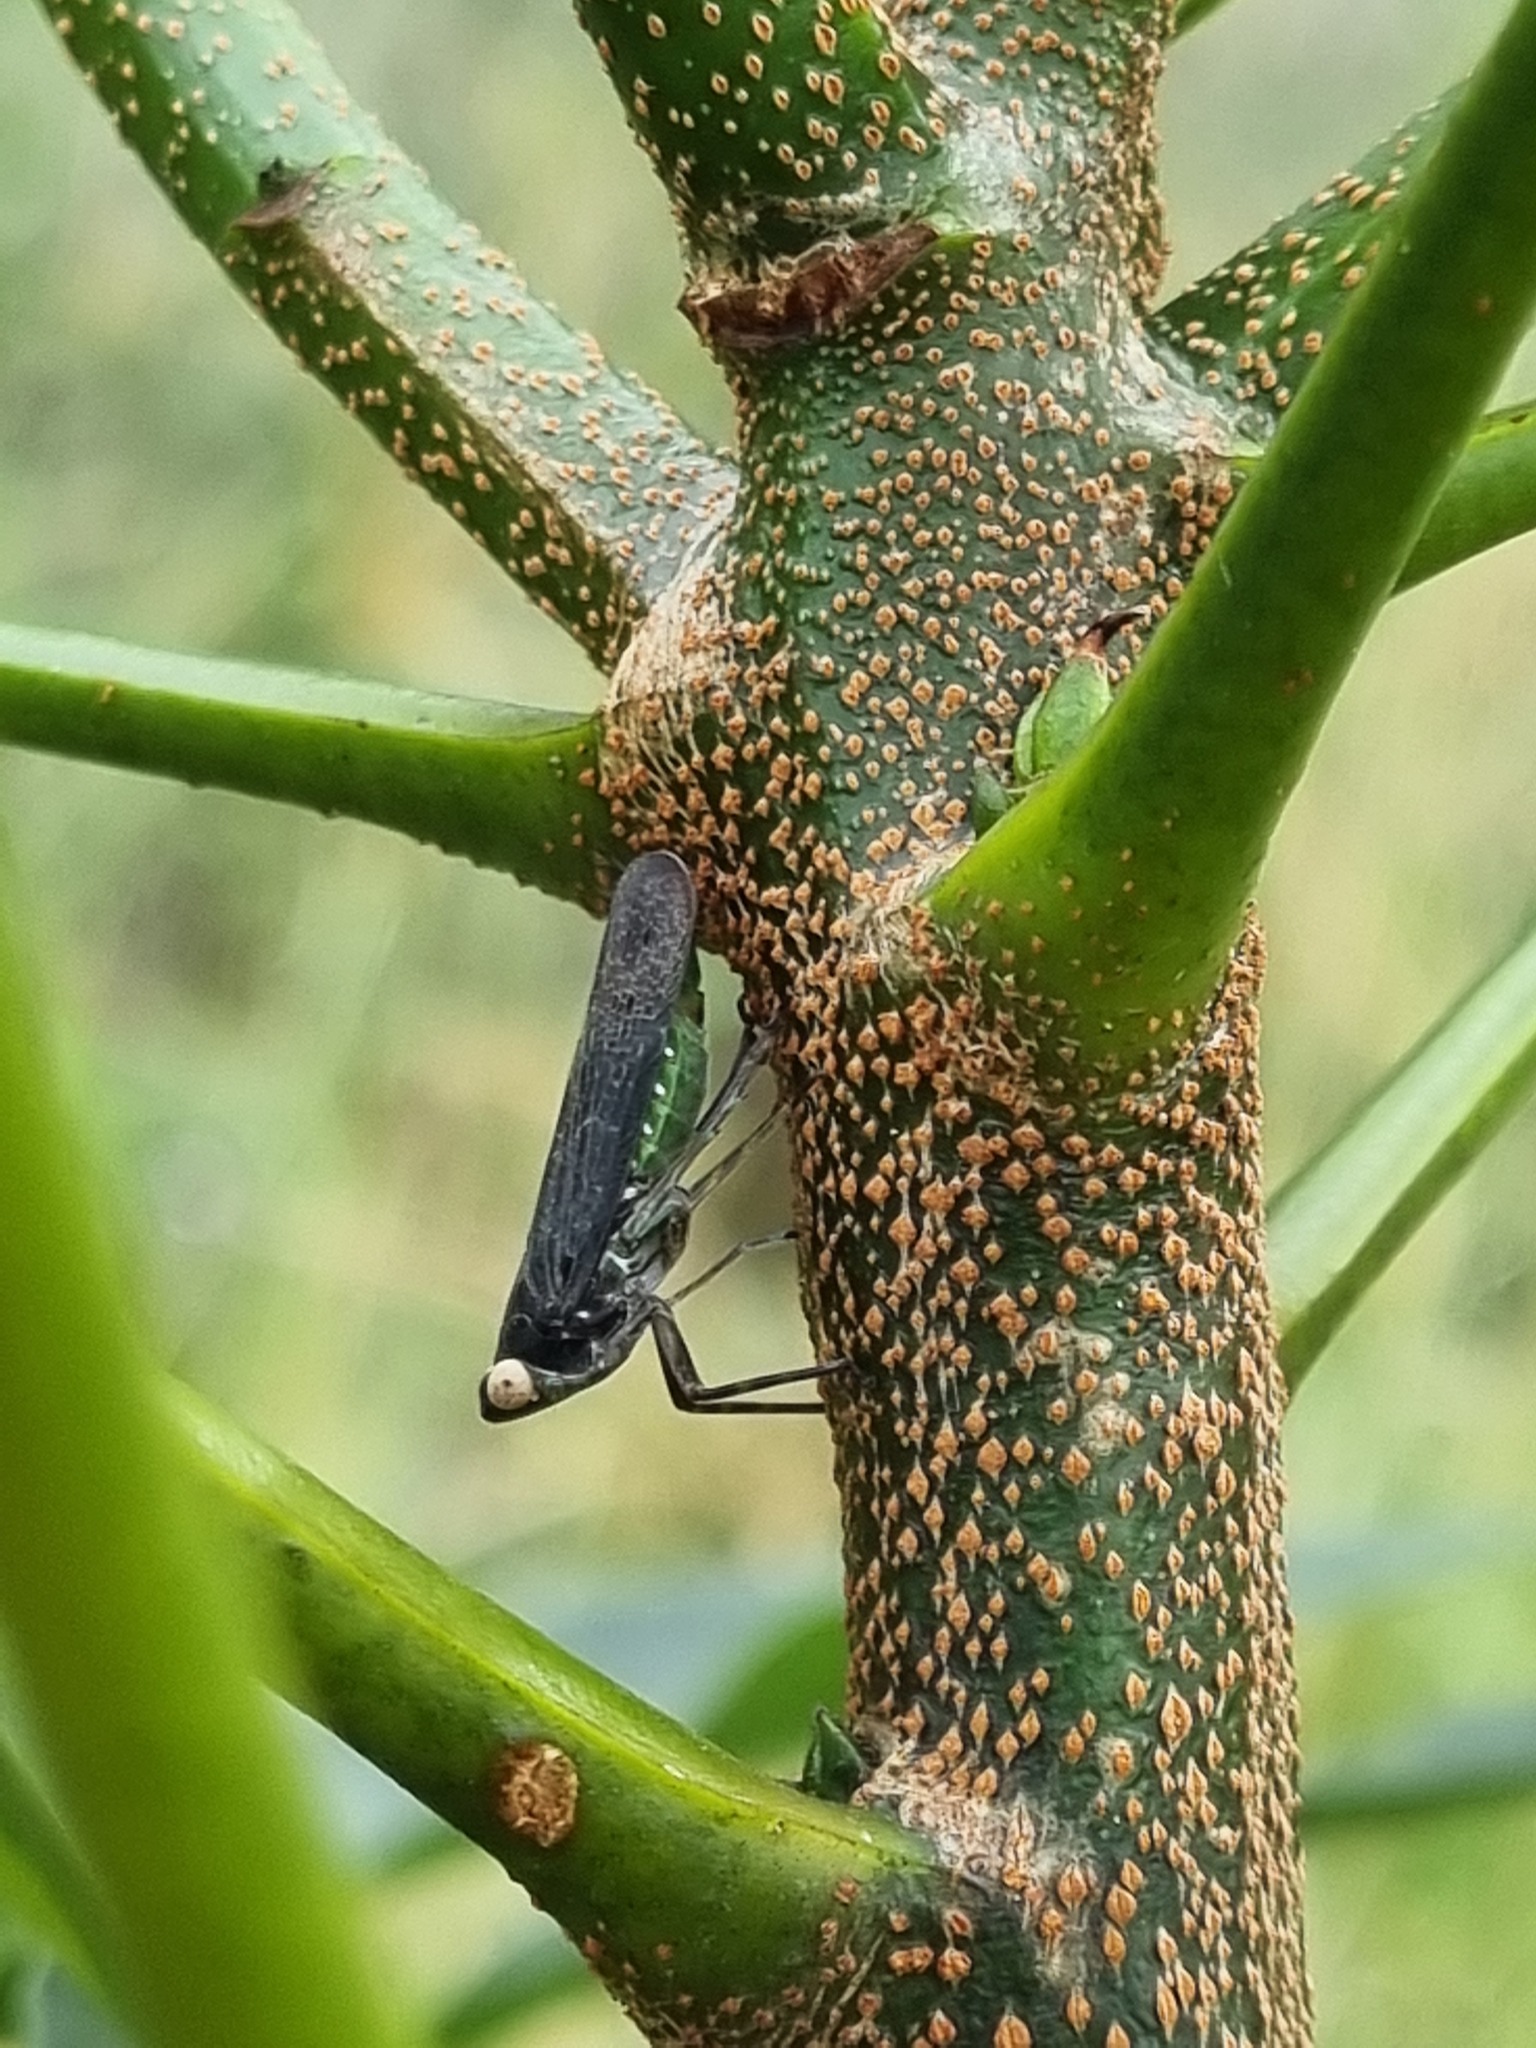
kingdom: Animalia
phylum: Arthropoda
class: Insecta
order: Hemiptera
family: Fulgoridae
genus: Desudaba
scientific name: Desudaba psittacus
